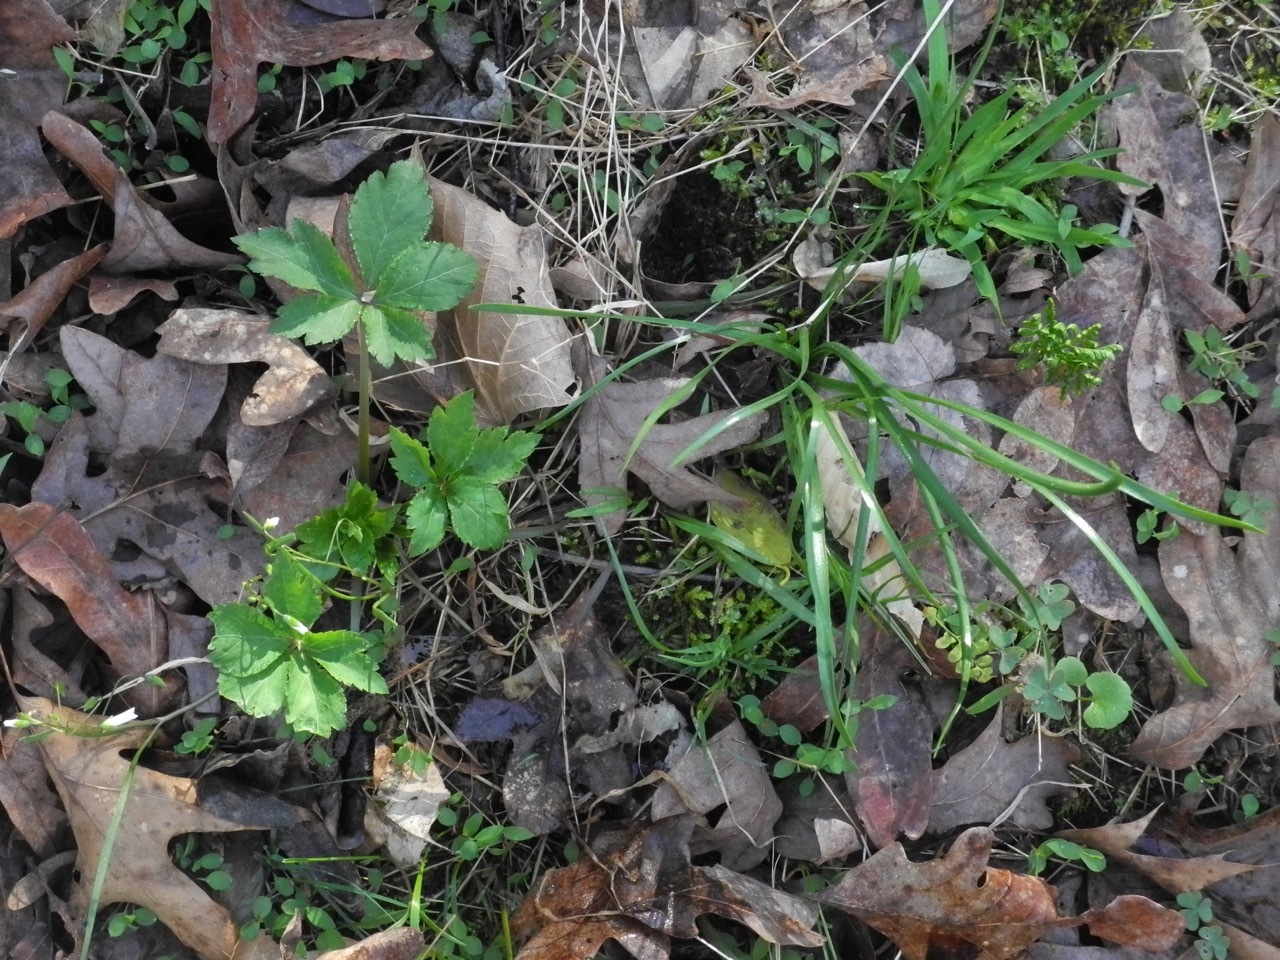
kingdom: Plantae
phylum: Tracheophyta
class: Magnoliopsida
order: Apiales
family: Apiaceae
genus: Sanicula
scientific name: Sanicula canadensis
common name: Canada sanicle
